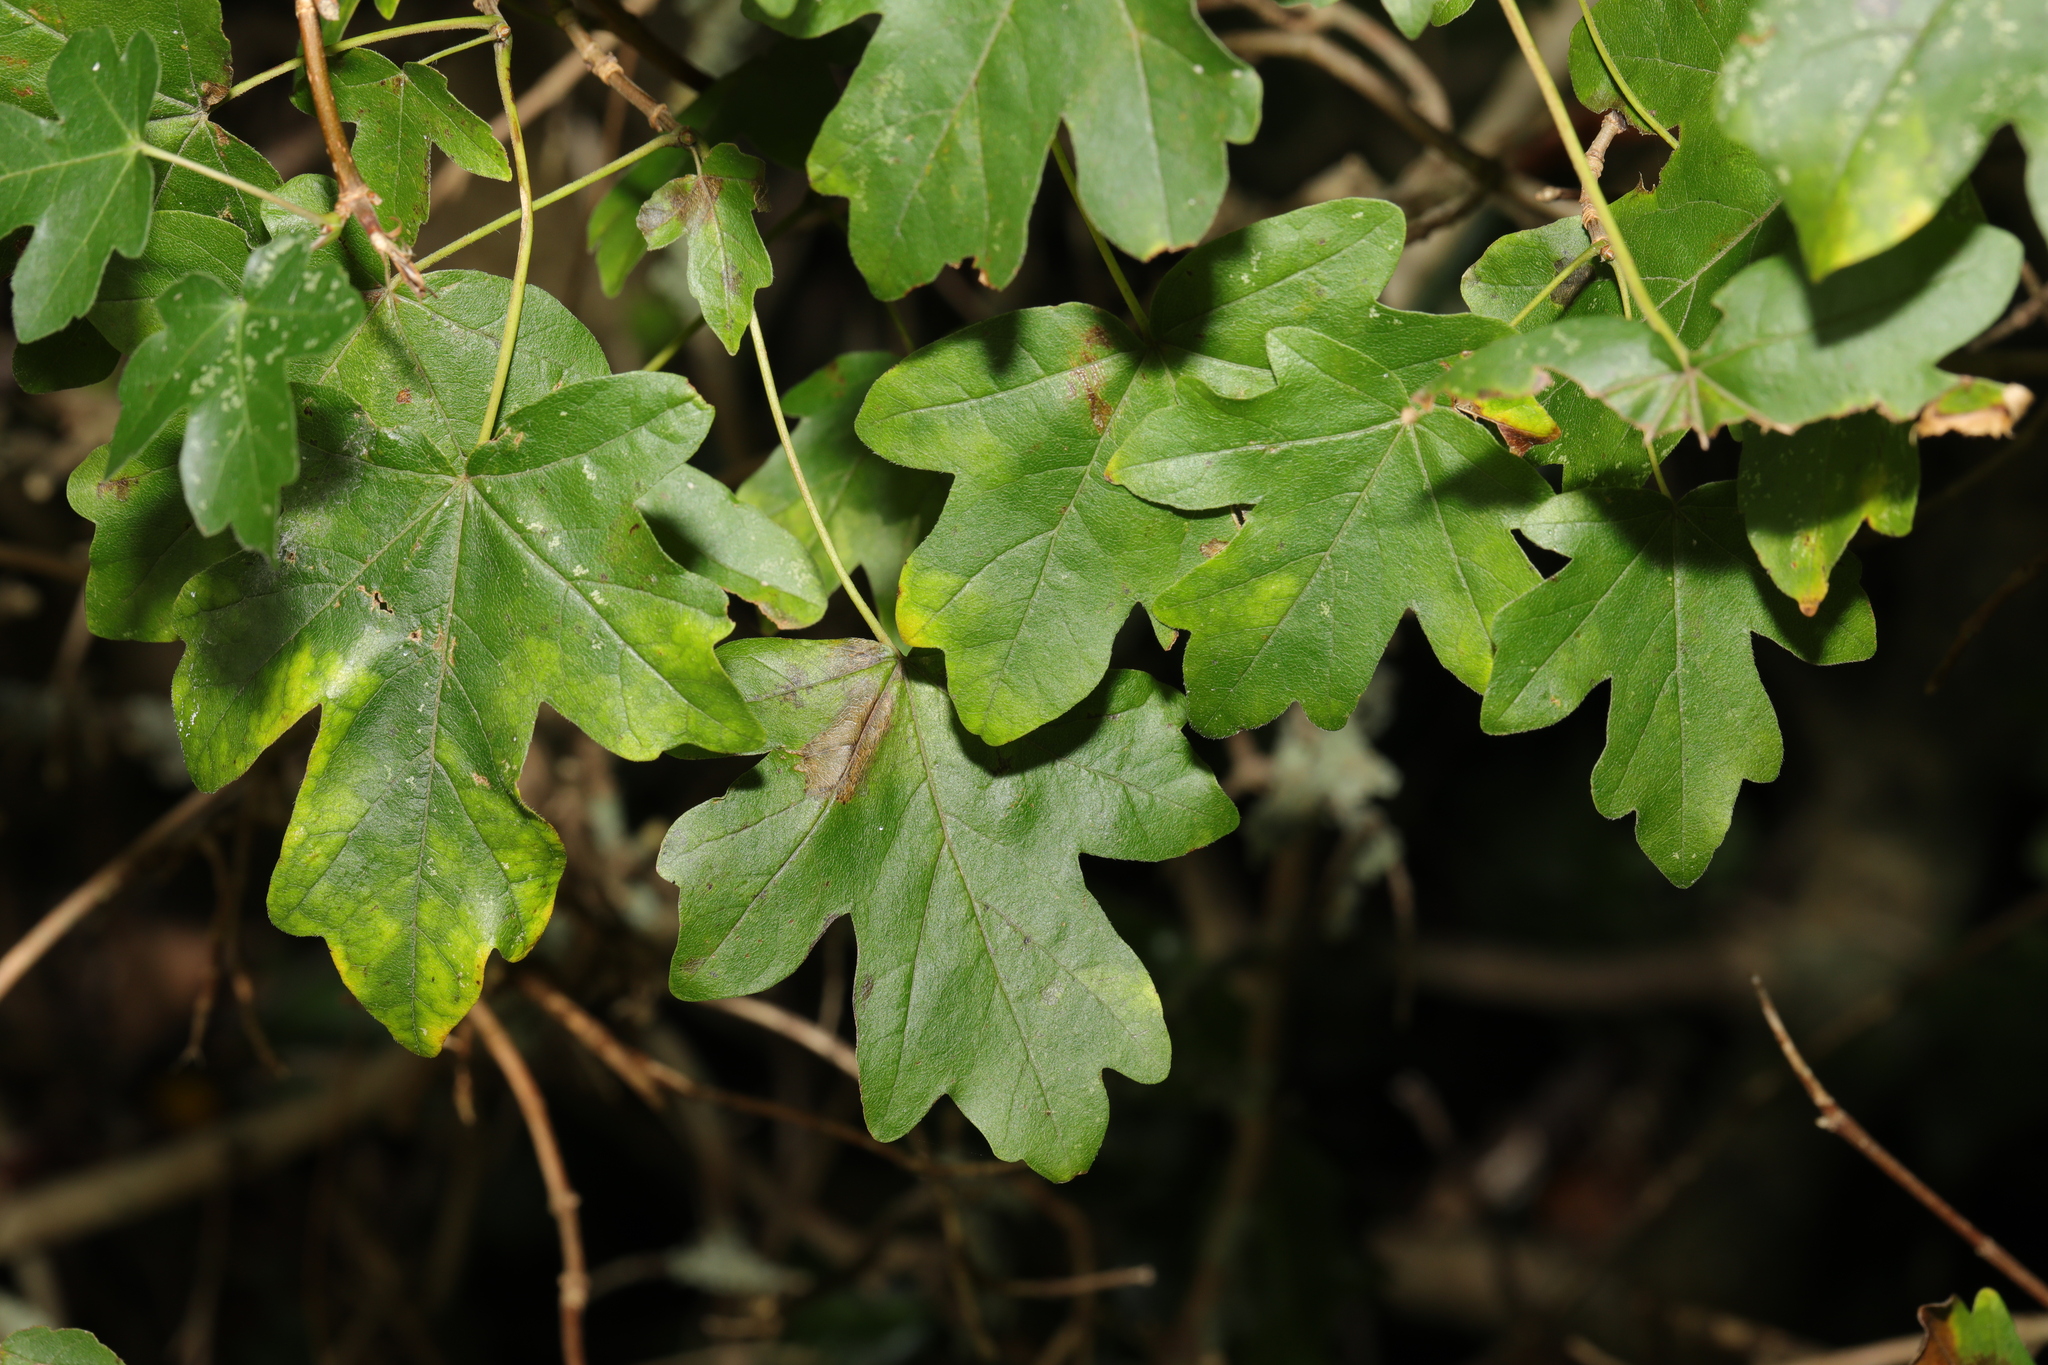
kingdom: Plantae
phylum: Tracheophyta
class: Magnoliopsida
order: Sapindales
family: Sapindaceae
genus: Acer
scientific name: Acer campestre
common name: Field maple
